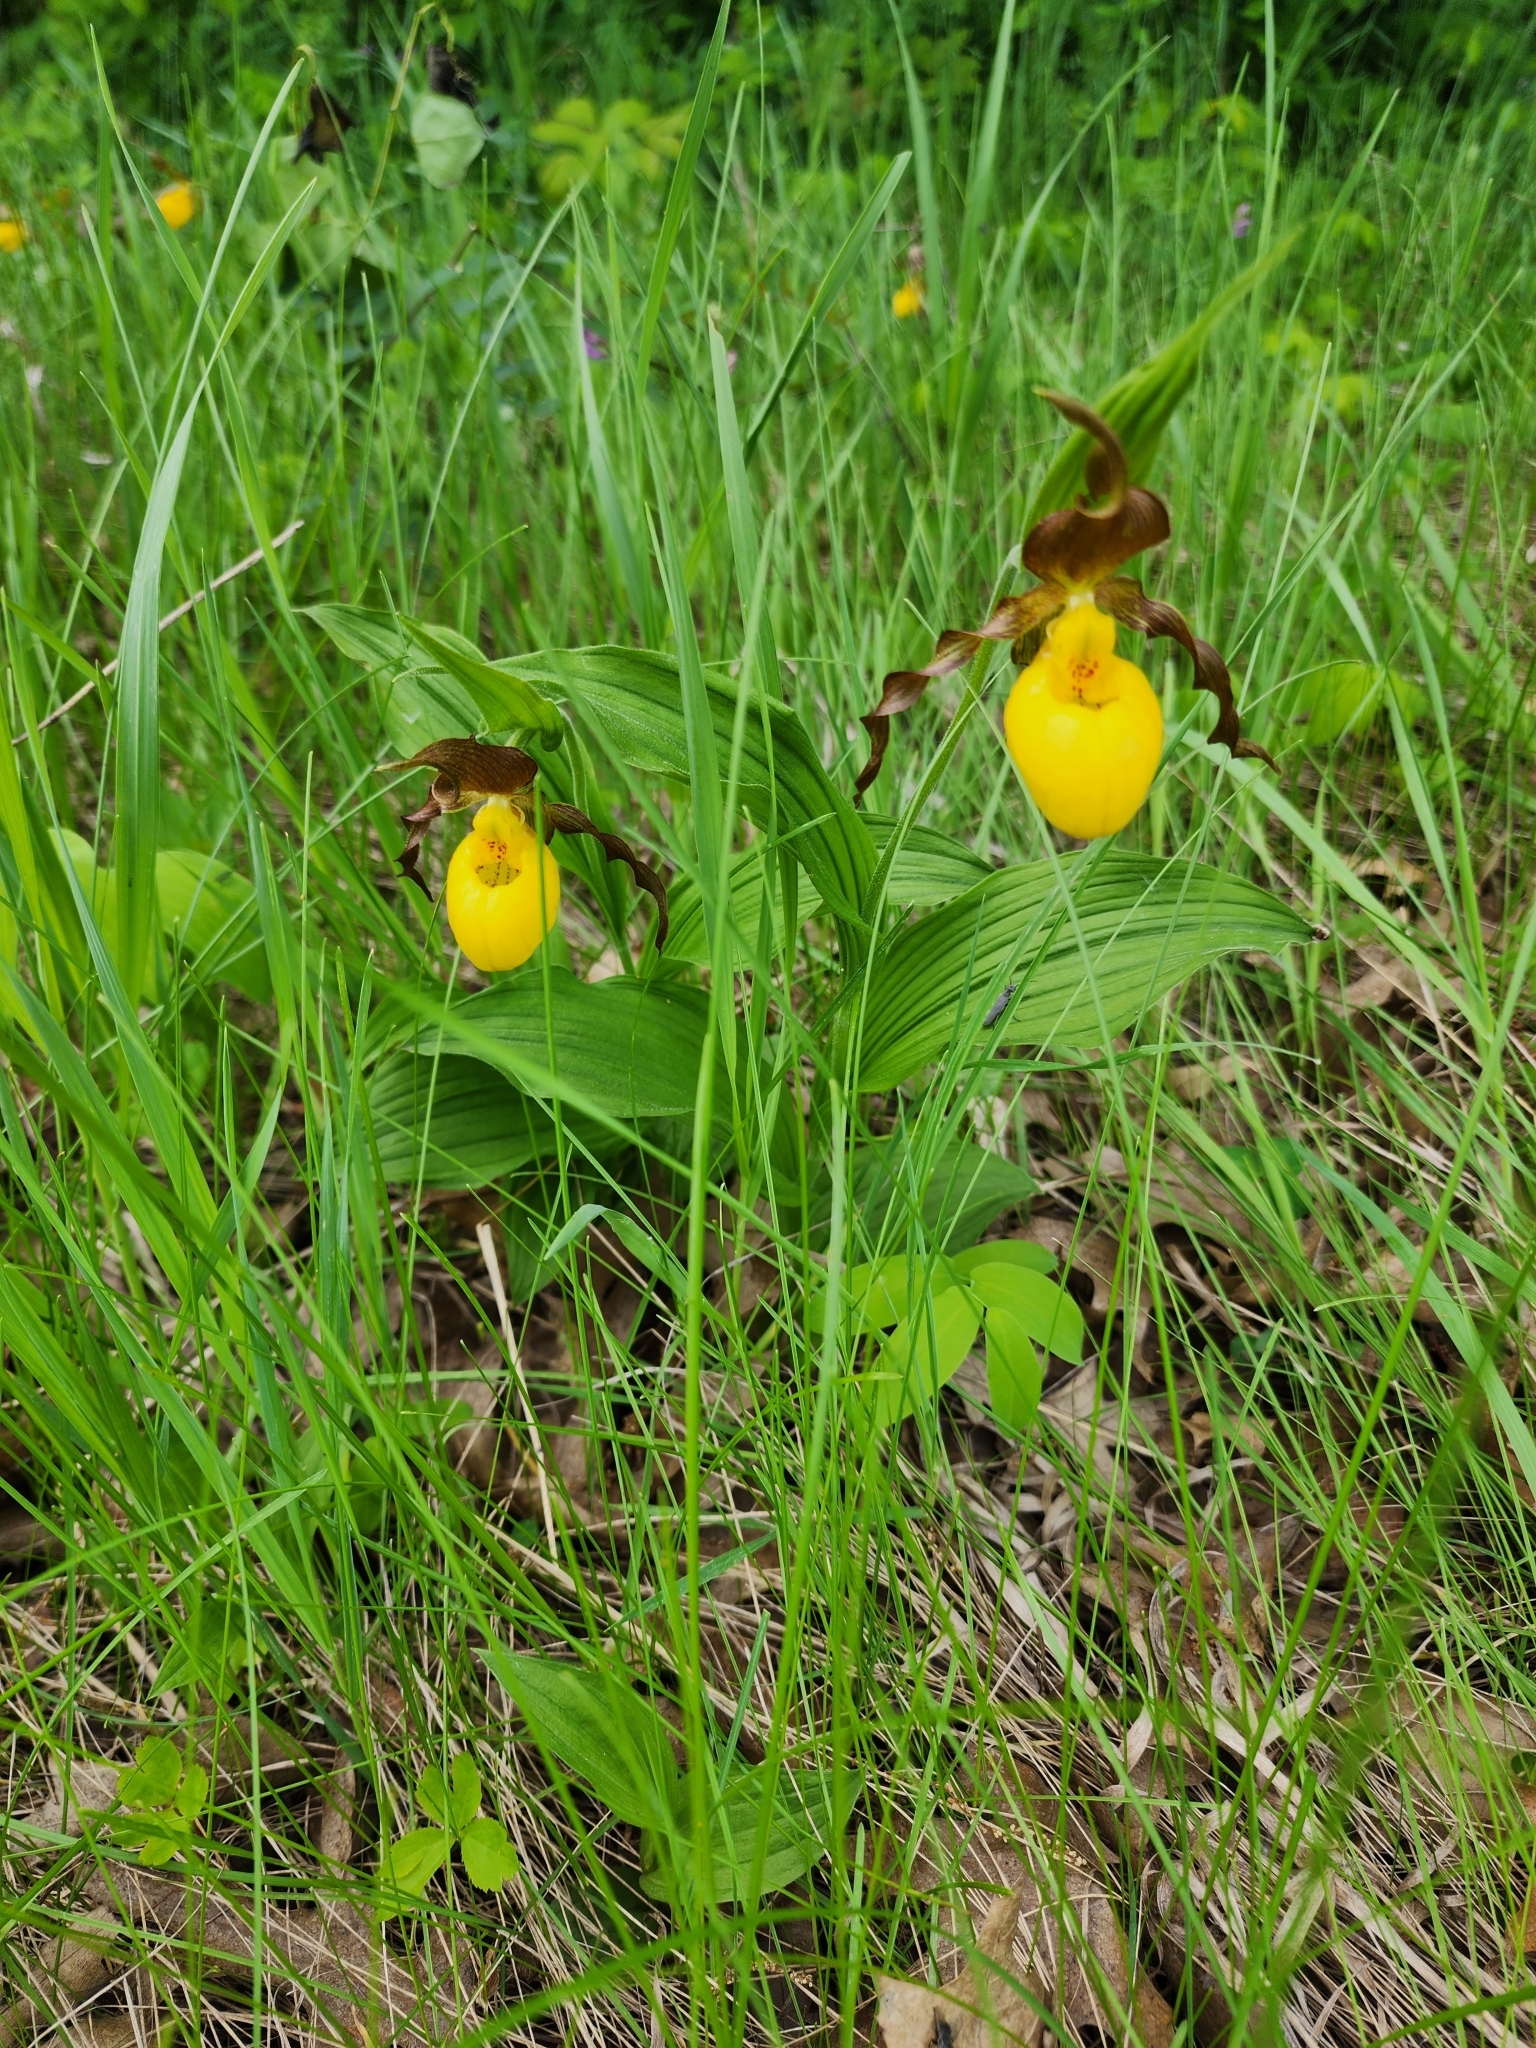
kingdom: Plantae
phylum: Tracheophyta
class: Liliopsida
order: Asparagales
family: Orchidaceae
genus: Cypripedium
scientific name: Cypripedium parviflorum
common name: American yellow lady's-slipper
